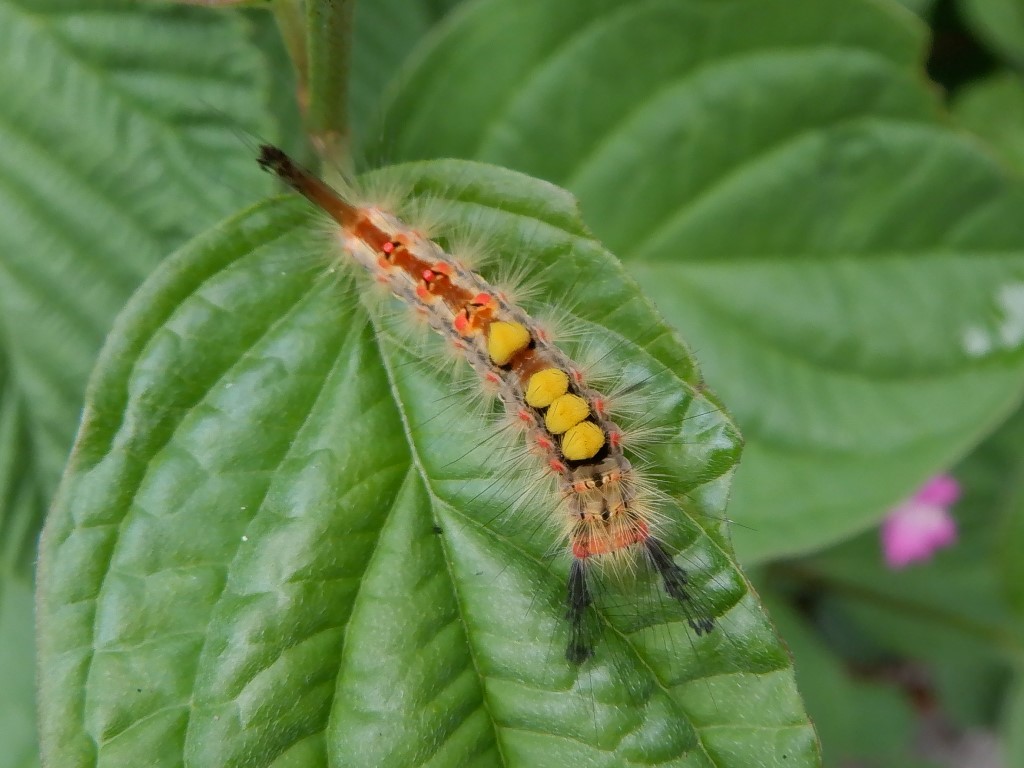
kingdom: Animalia
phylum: Arthropoda
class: Insecta
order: Lepidoptera
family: Erebidae
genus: Orgyia
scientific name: Orgyia antiqua
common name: Vapourer
